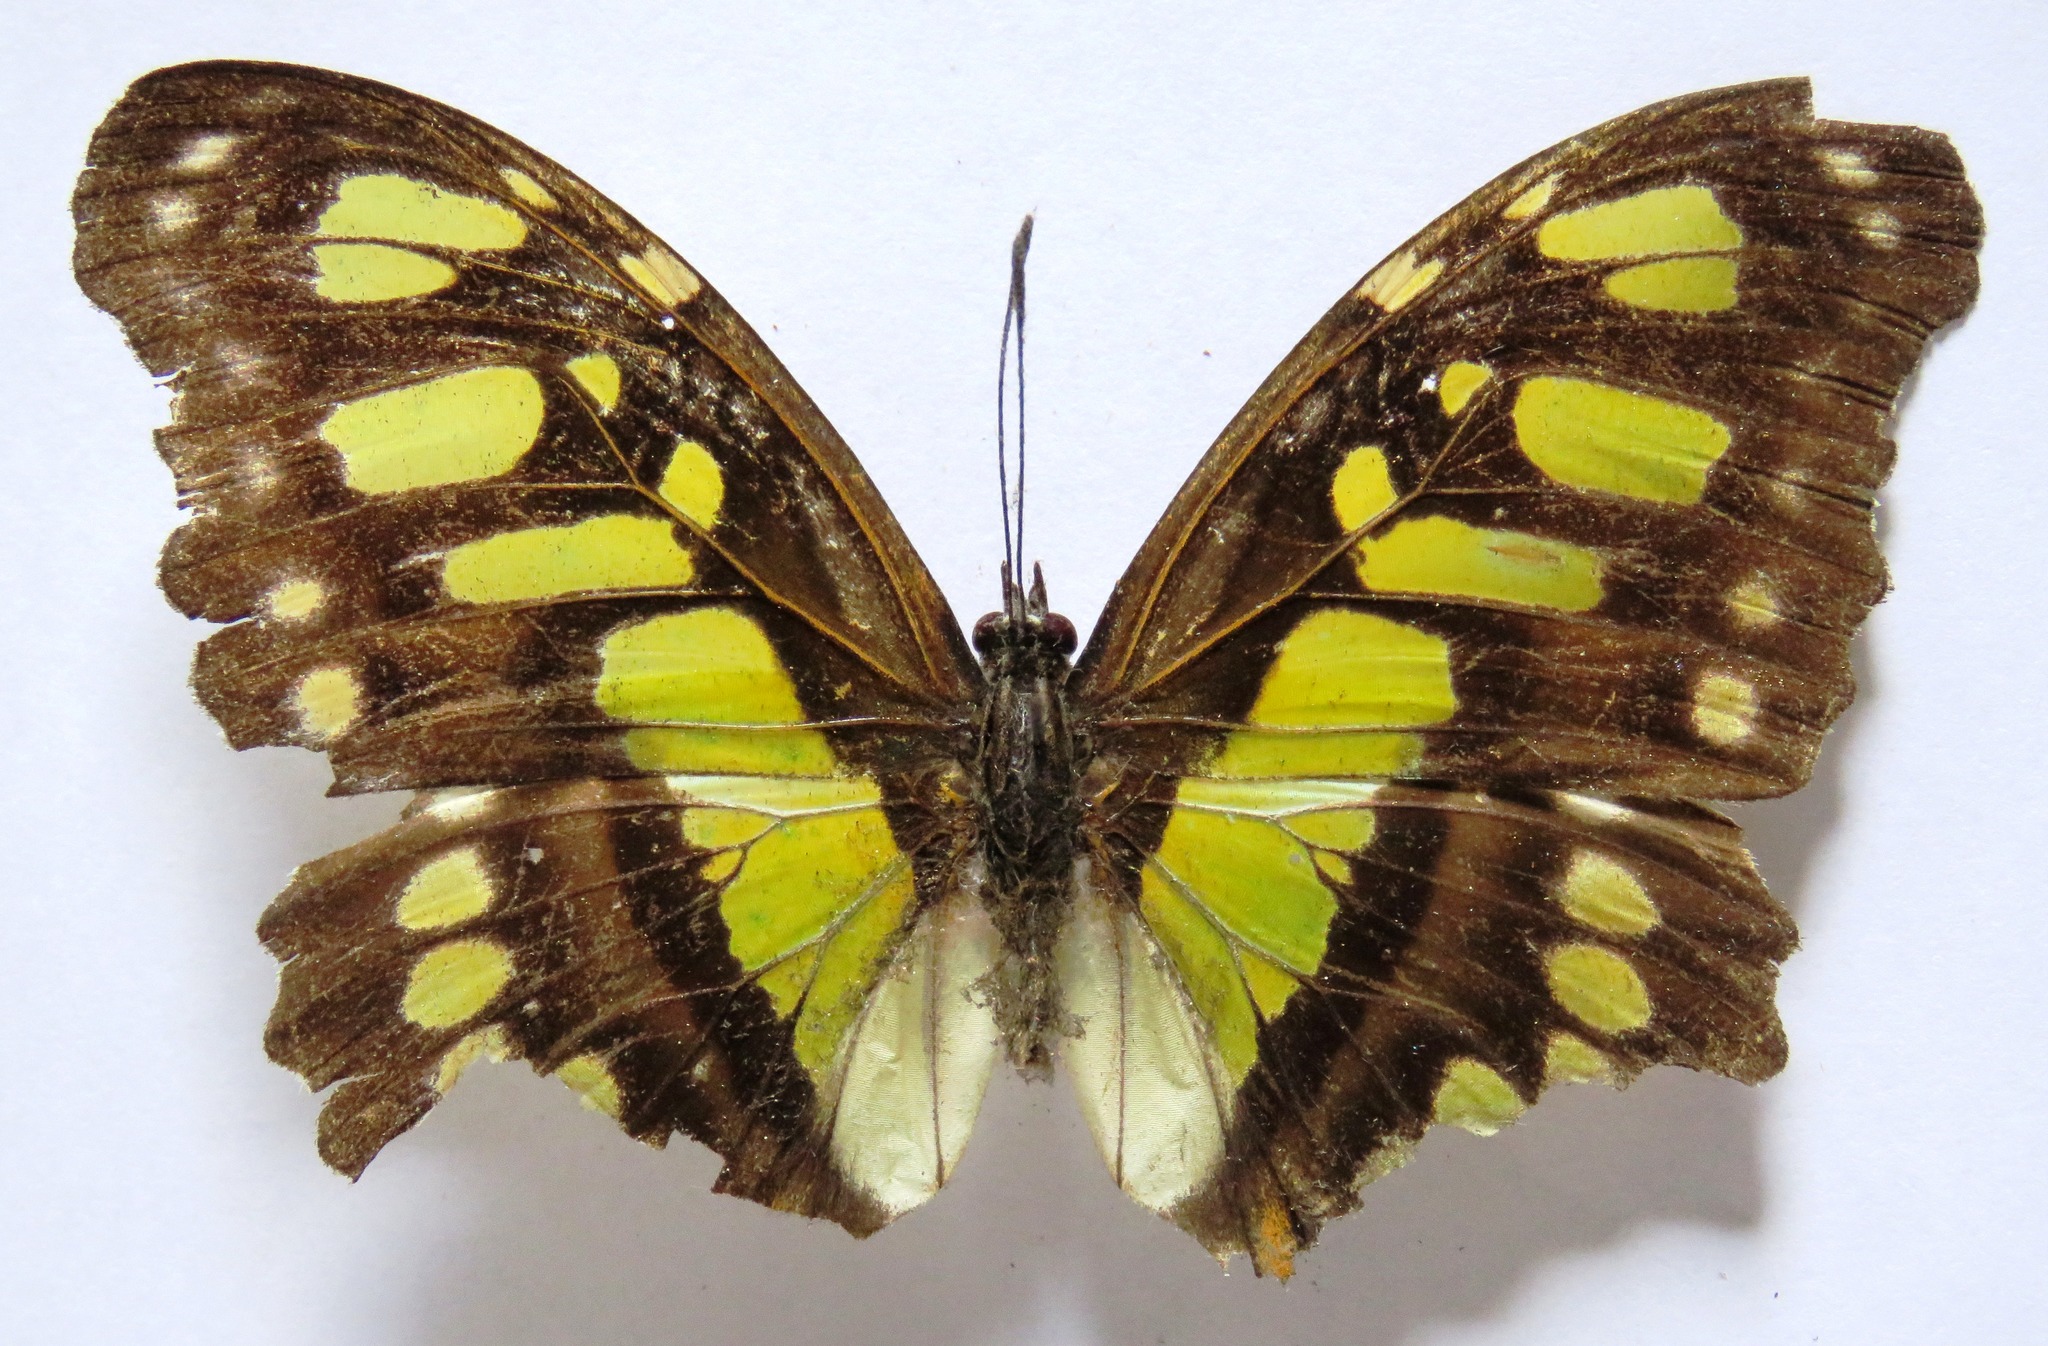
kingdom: Animalia
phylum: Arthropoda
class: Insecta
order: Lepidoptera
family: Nymphalidae
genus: Siproeta
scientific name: Siproeta stelenes
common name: Malachite
